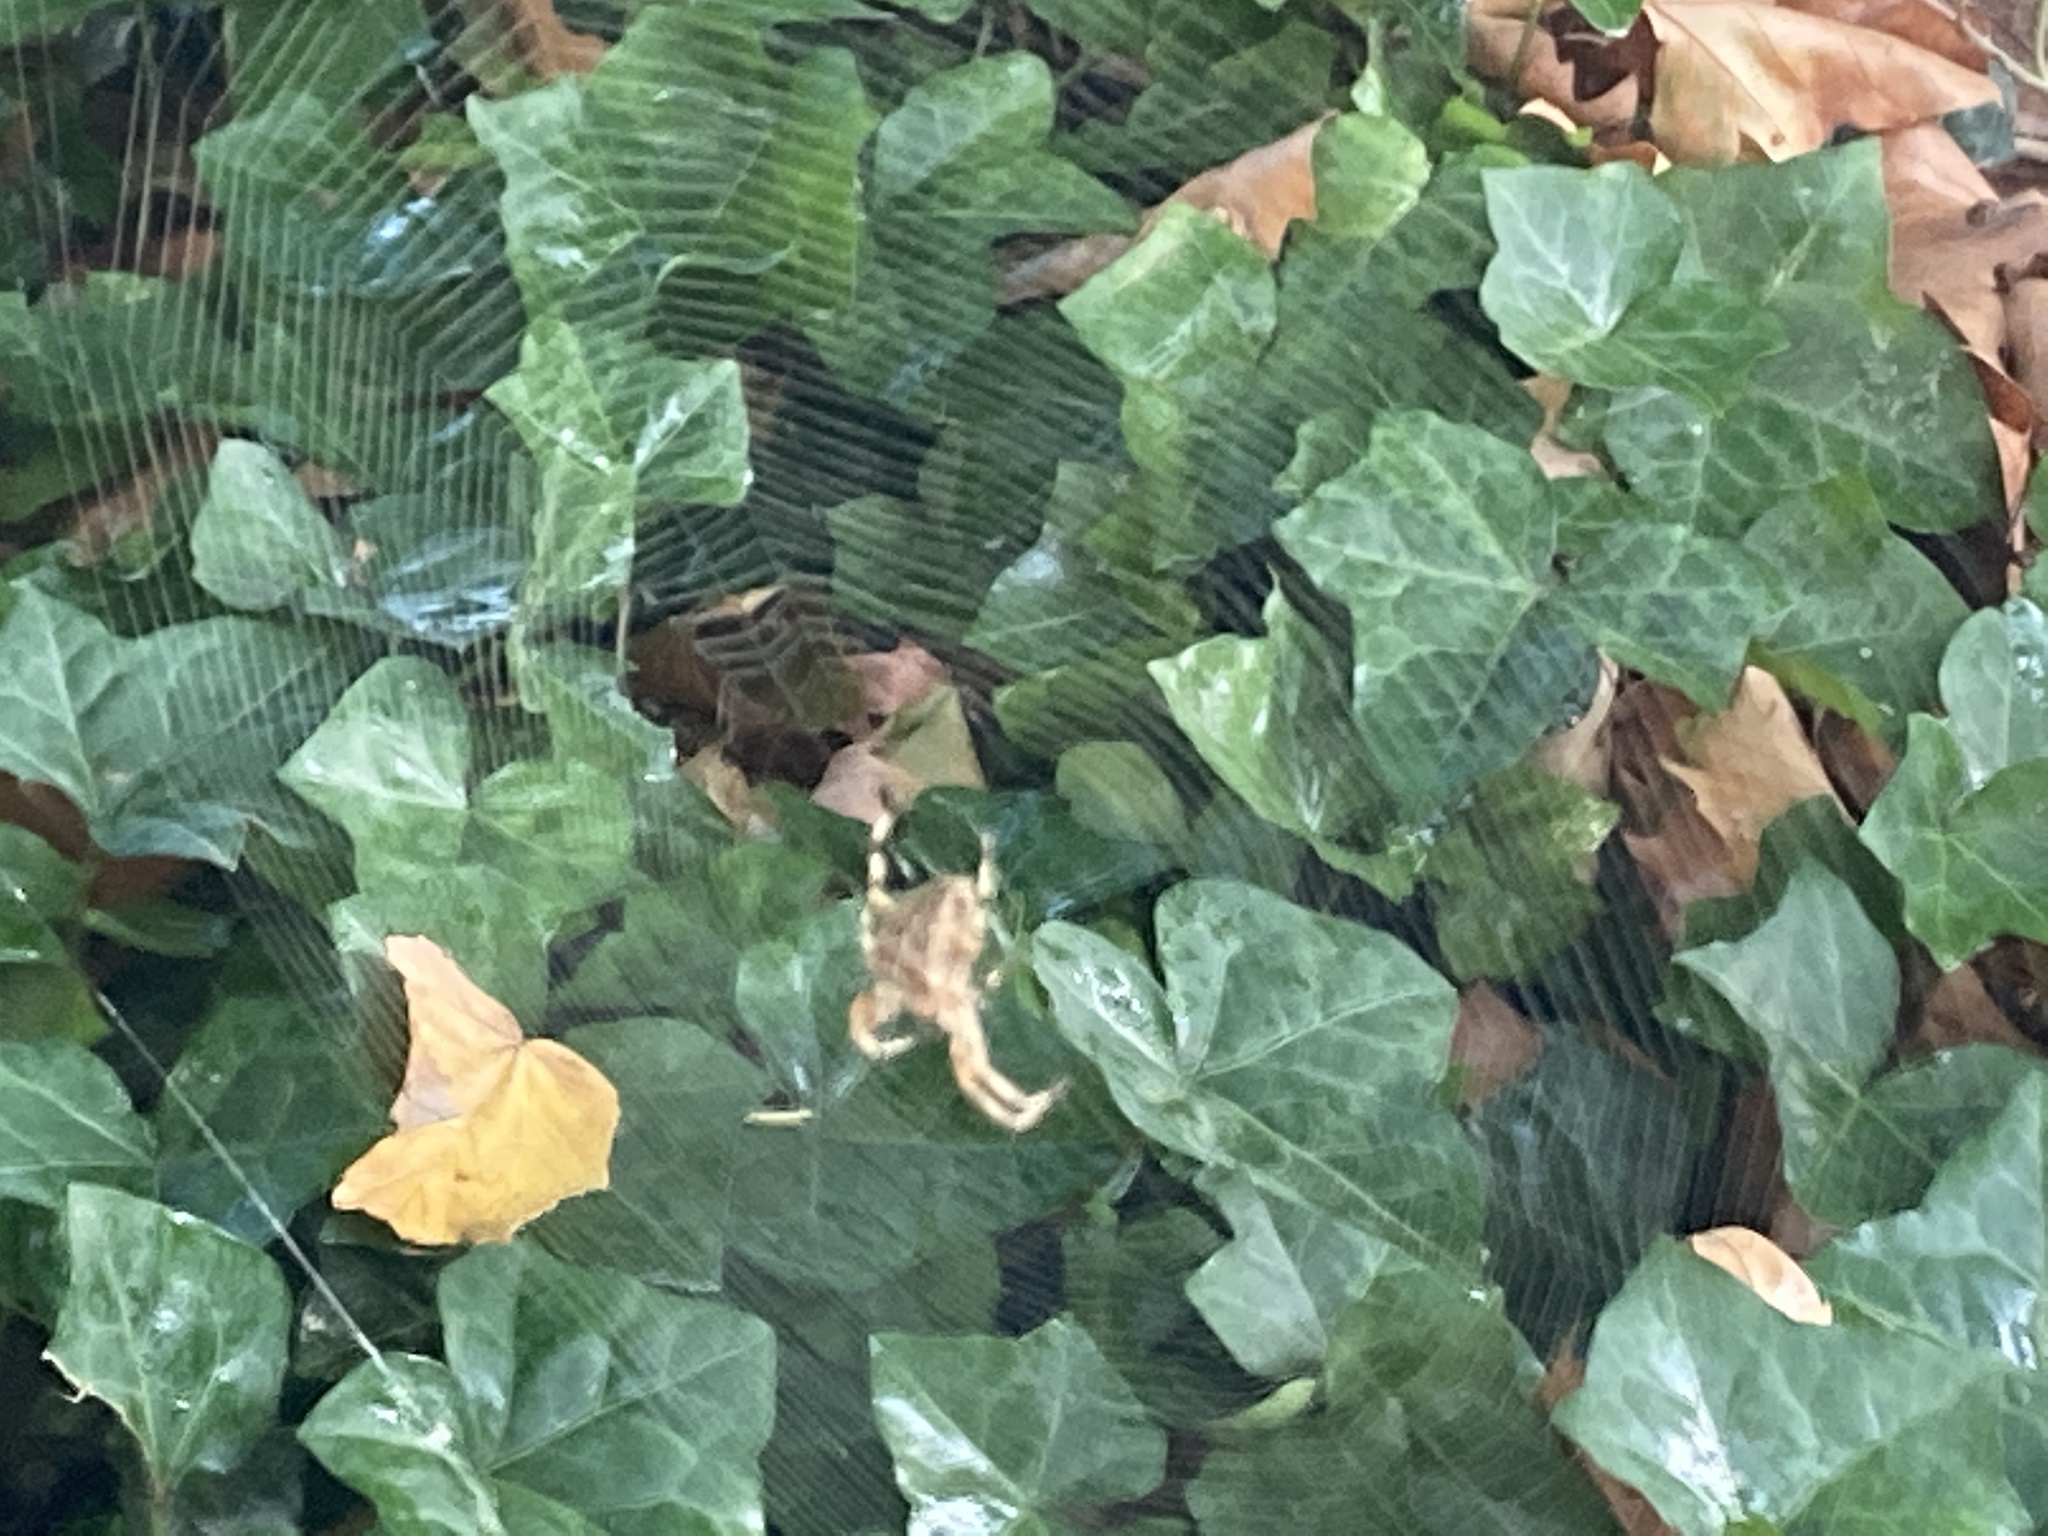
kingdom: Animalia
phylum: Arthropoda
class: Arachnida
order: Araneae
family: Araneidae
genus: Araneus
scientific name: Araneus diadematus
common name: Cross orbweaver
